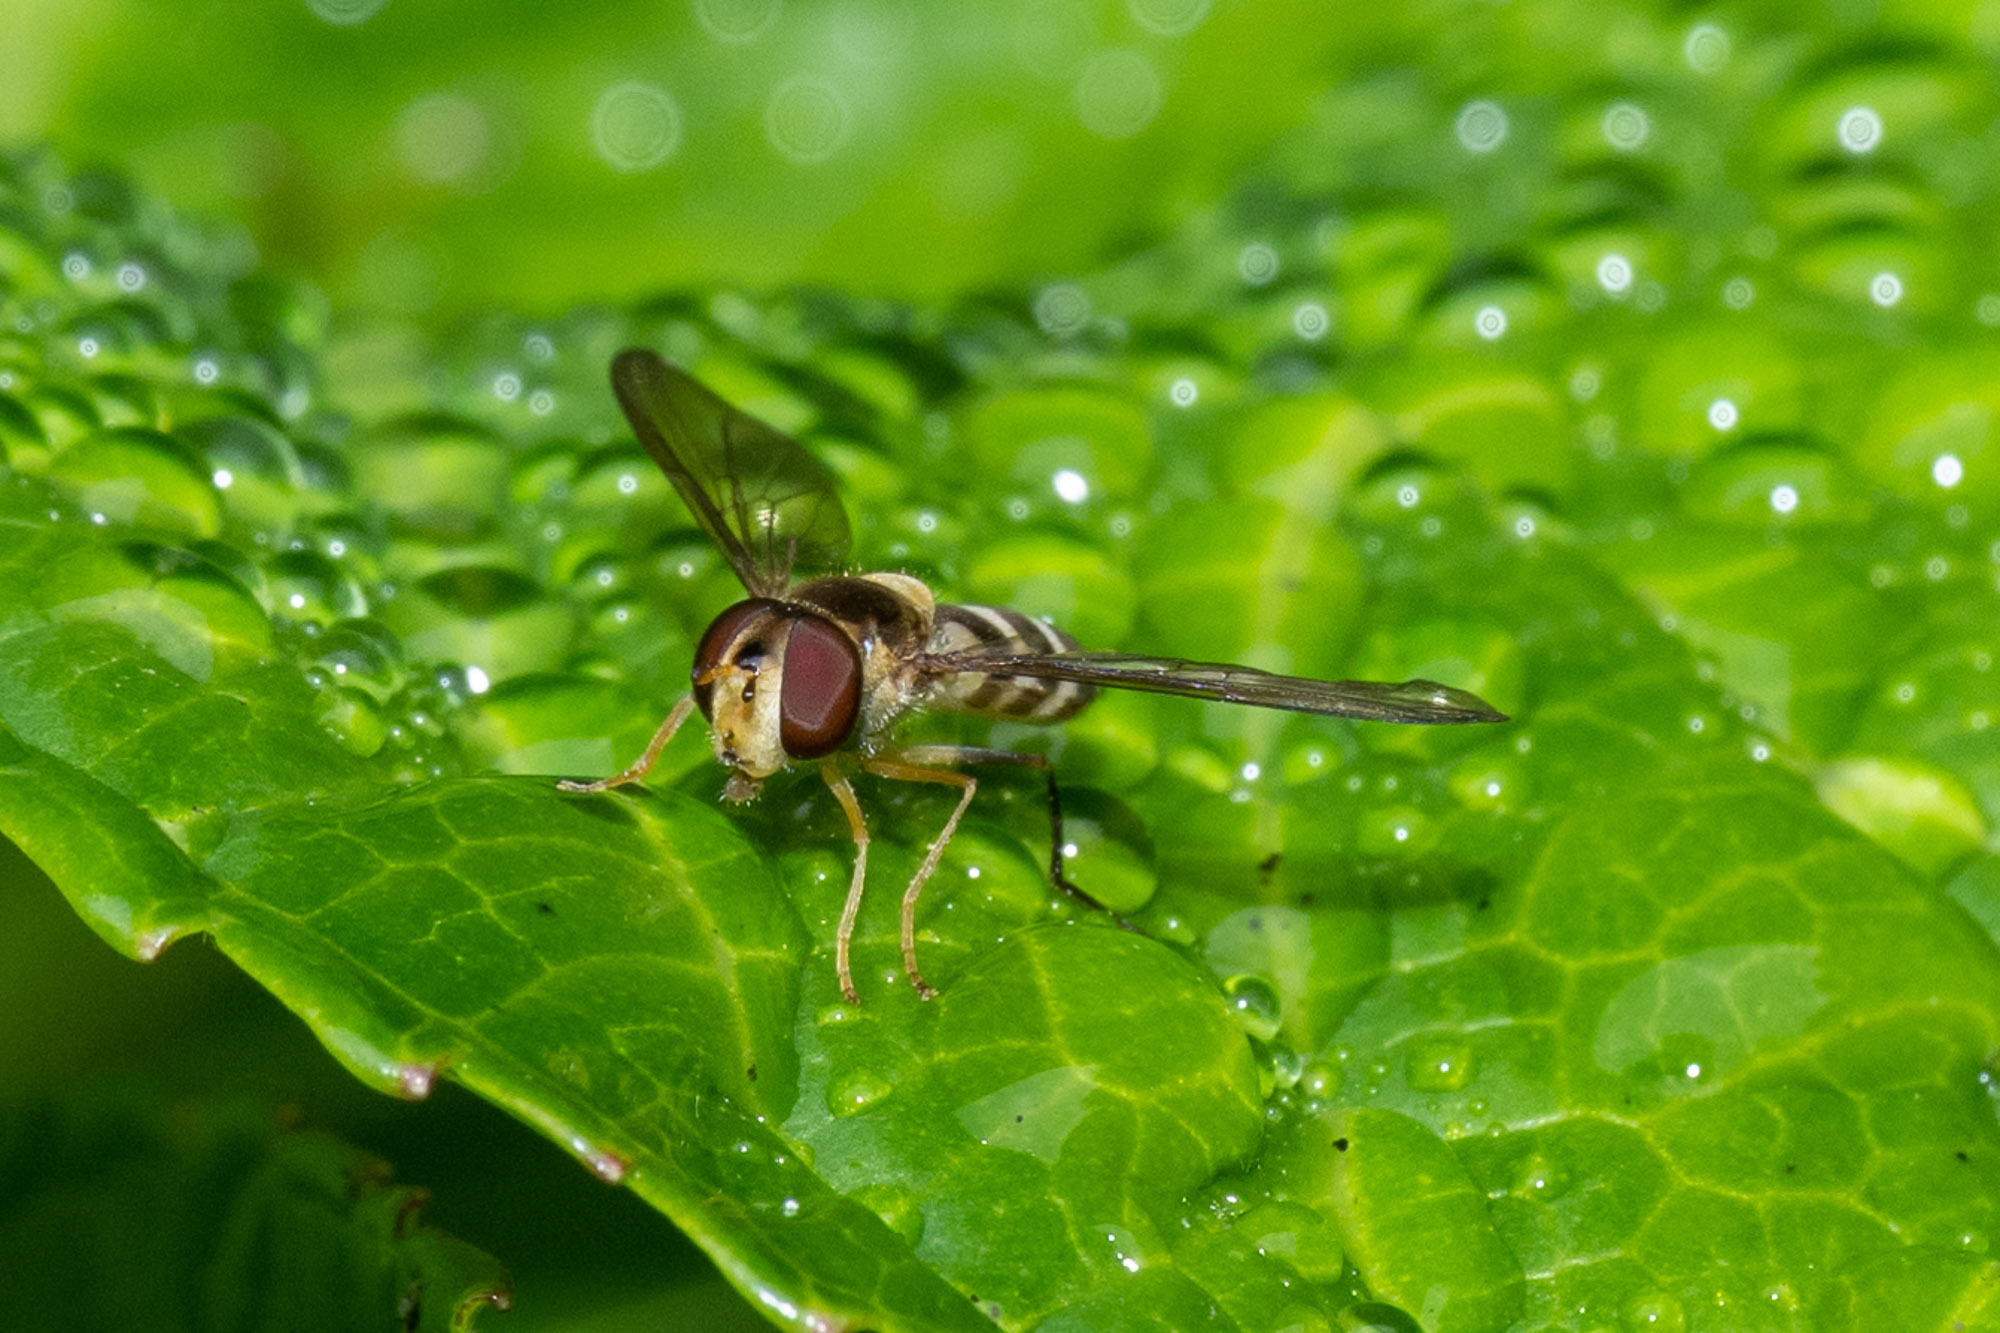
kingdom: Animalia
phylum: Arthropoda
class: Insecta
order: Diptera
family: Syrphidae
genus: Meliscaeva
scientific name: Meliscaeva cinctella
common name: American thintail fly
